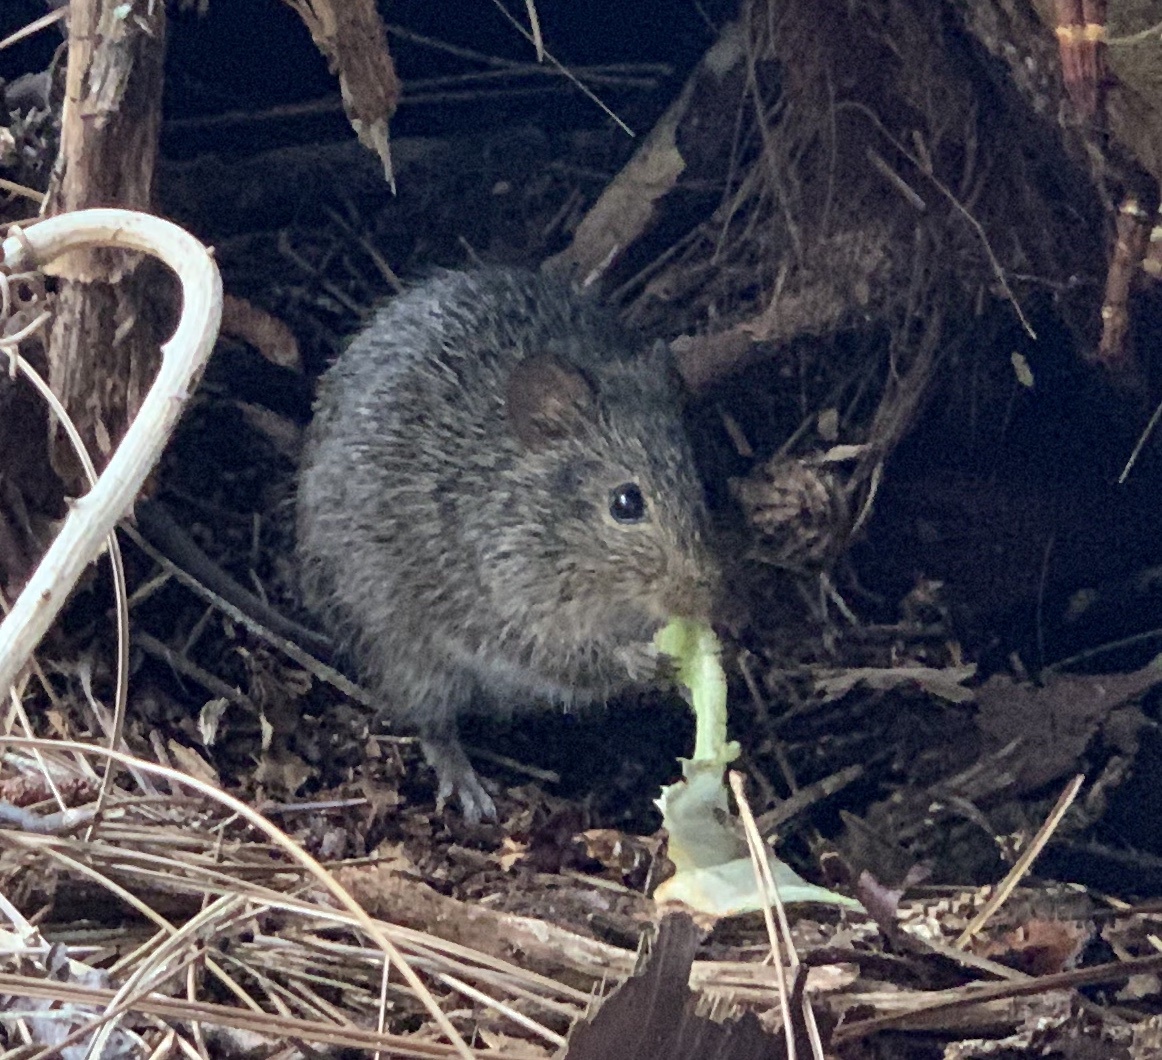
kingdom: Animalia
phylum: Chordata
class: Mammalia
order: Rodentia
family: Cricetidae
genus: Sigmodon
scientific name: Sigmodon hispidus
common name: Hispid cotton rat
